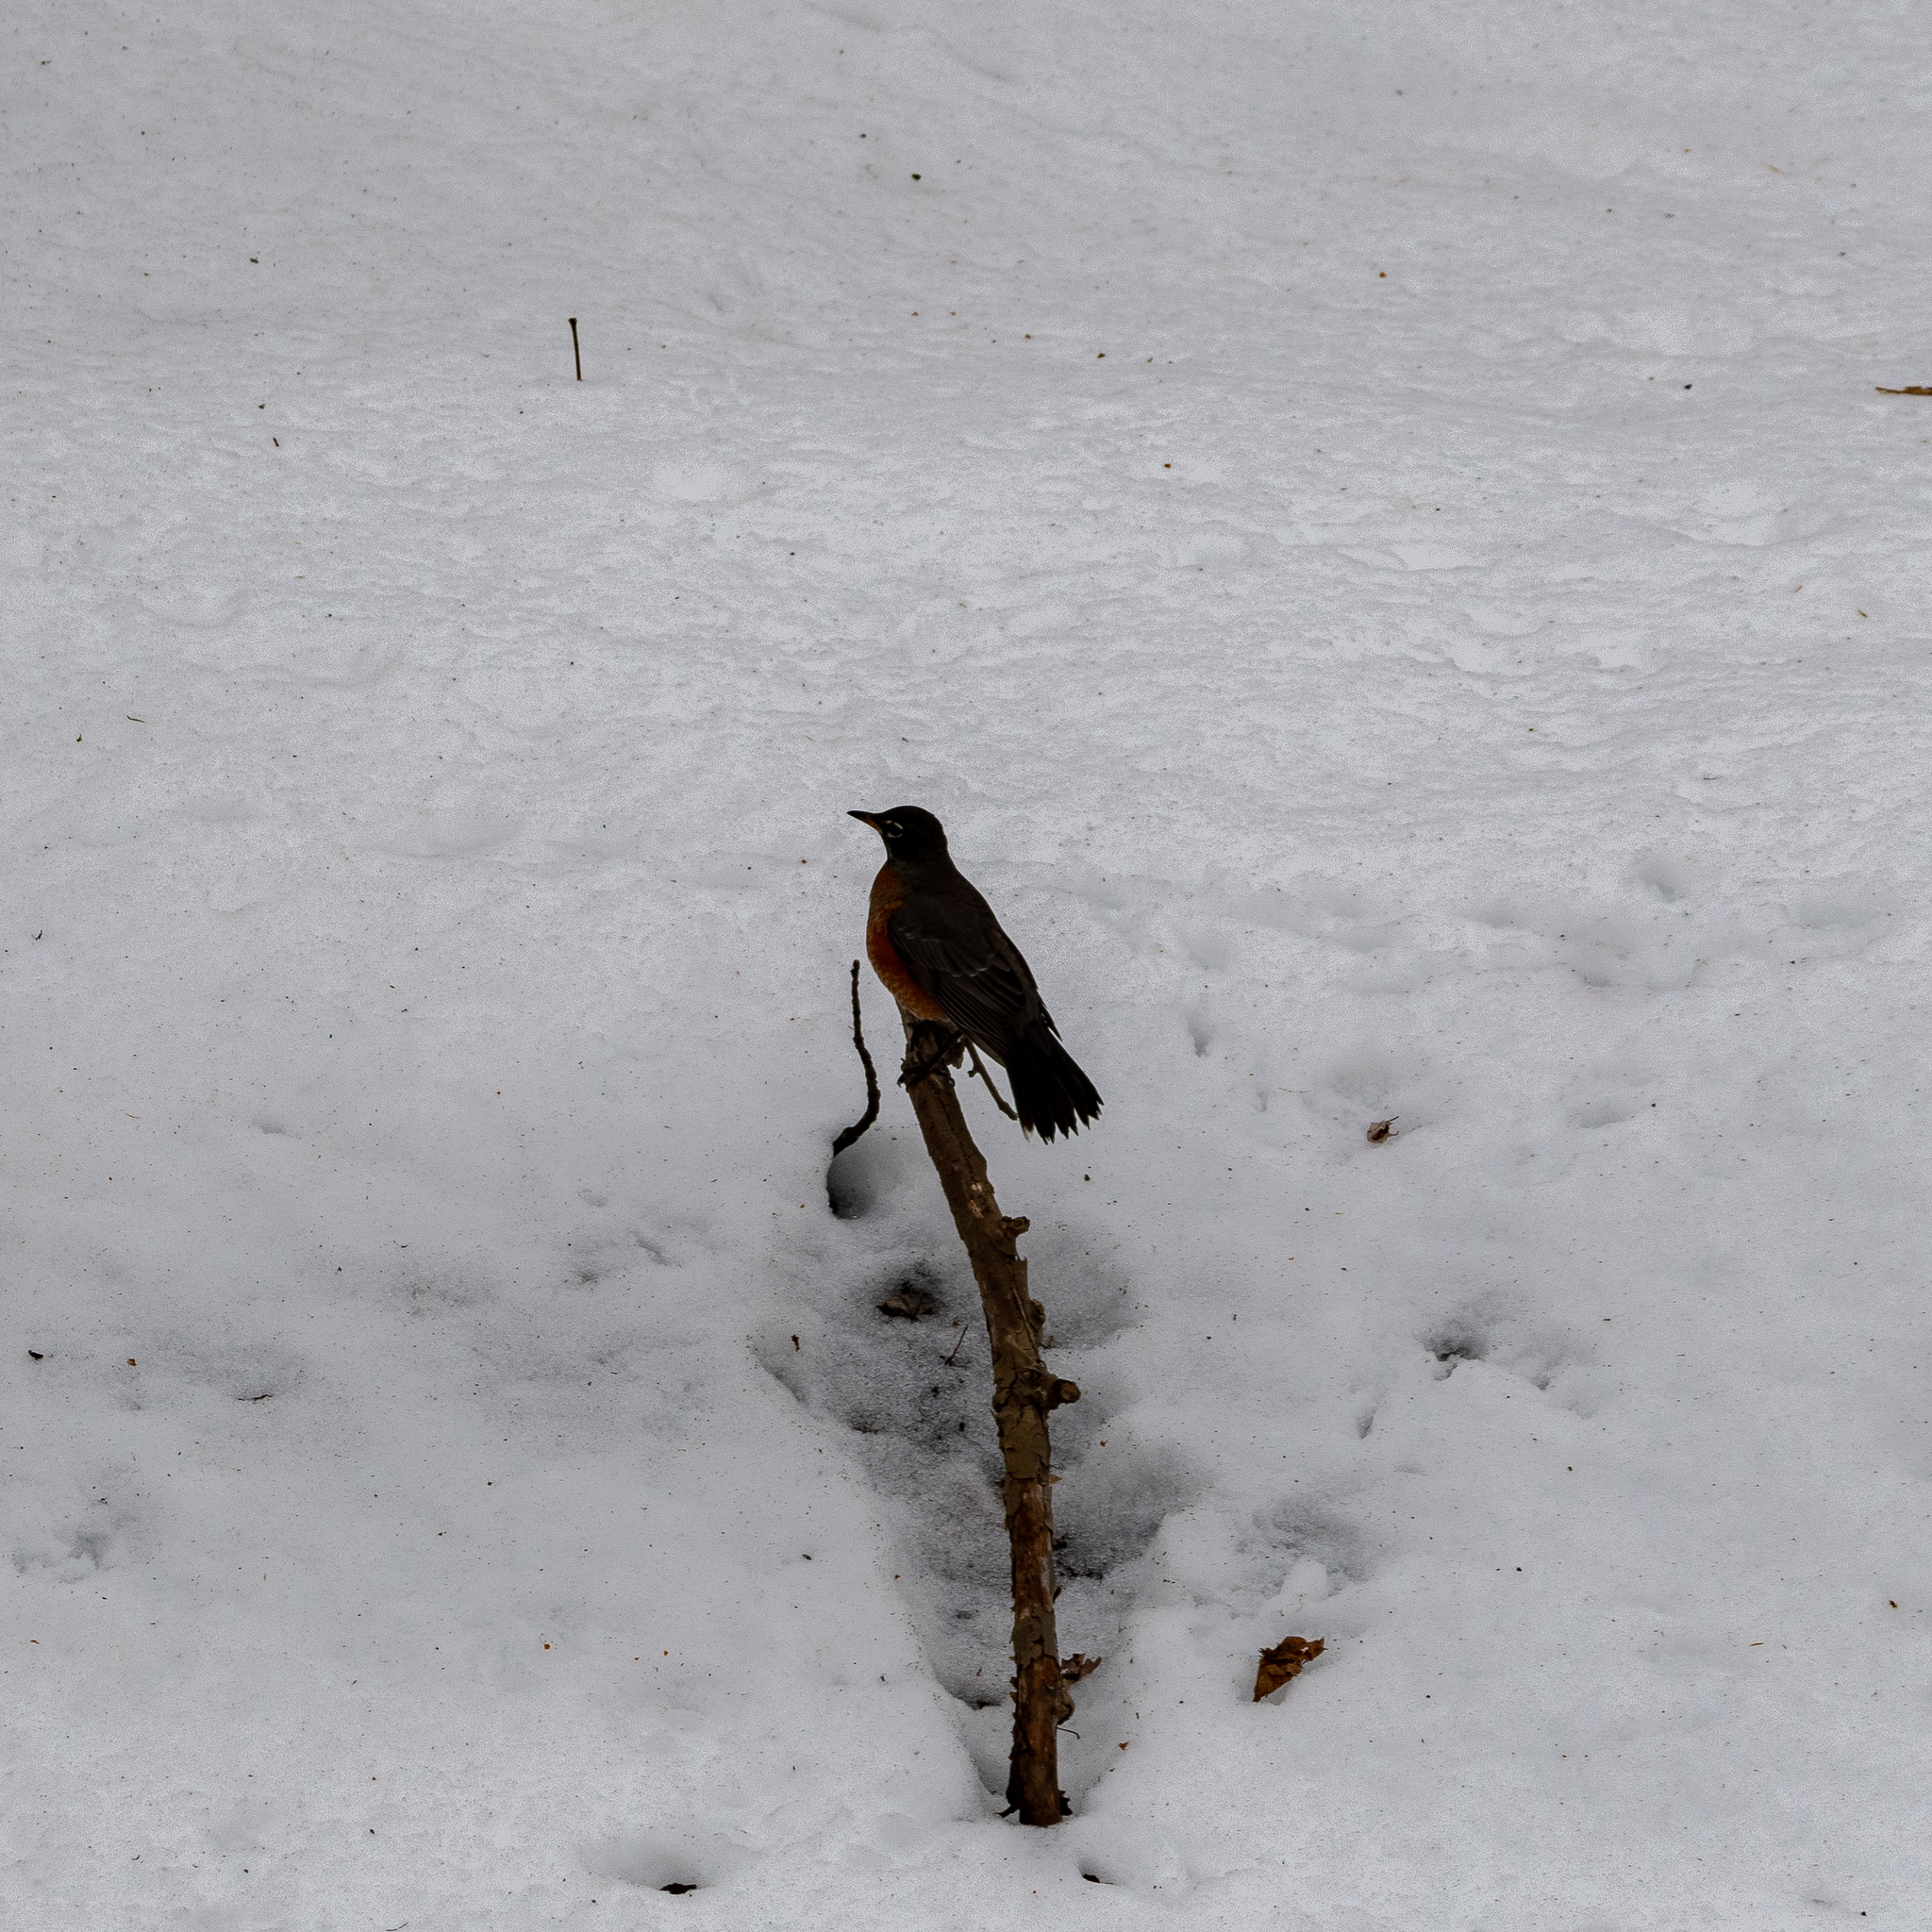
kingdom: Animalia
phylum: Chordata
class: Aves
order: Passeriformes
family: Turdidae
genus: Turdus
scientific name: Turdus migratorius
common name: American robin
